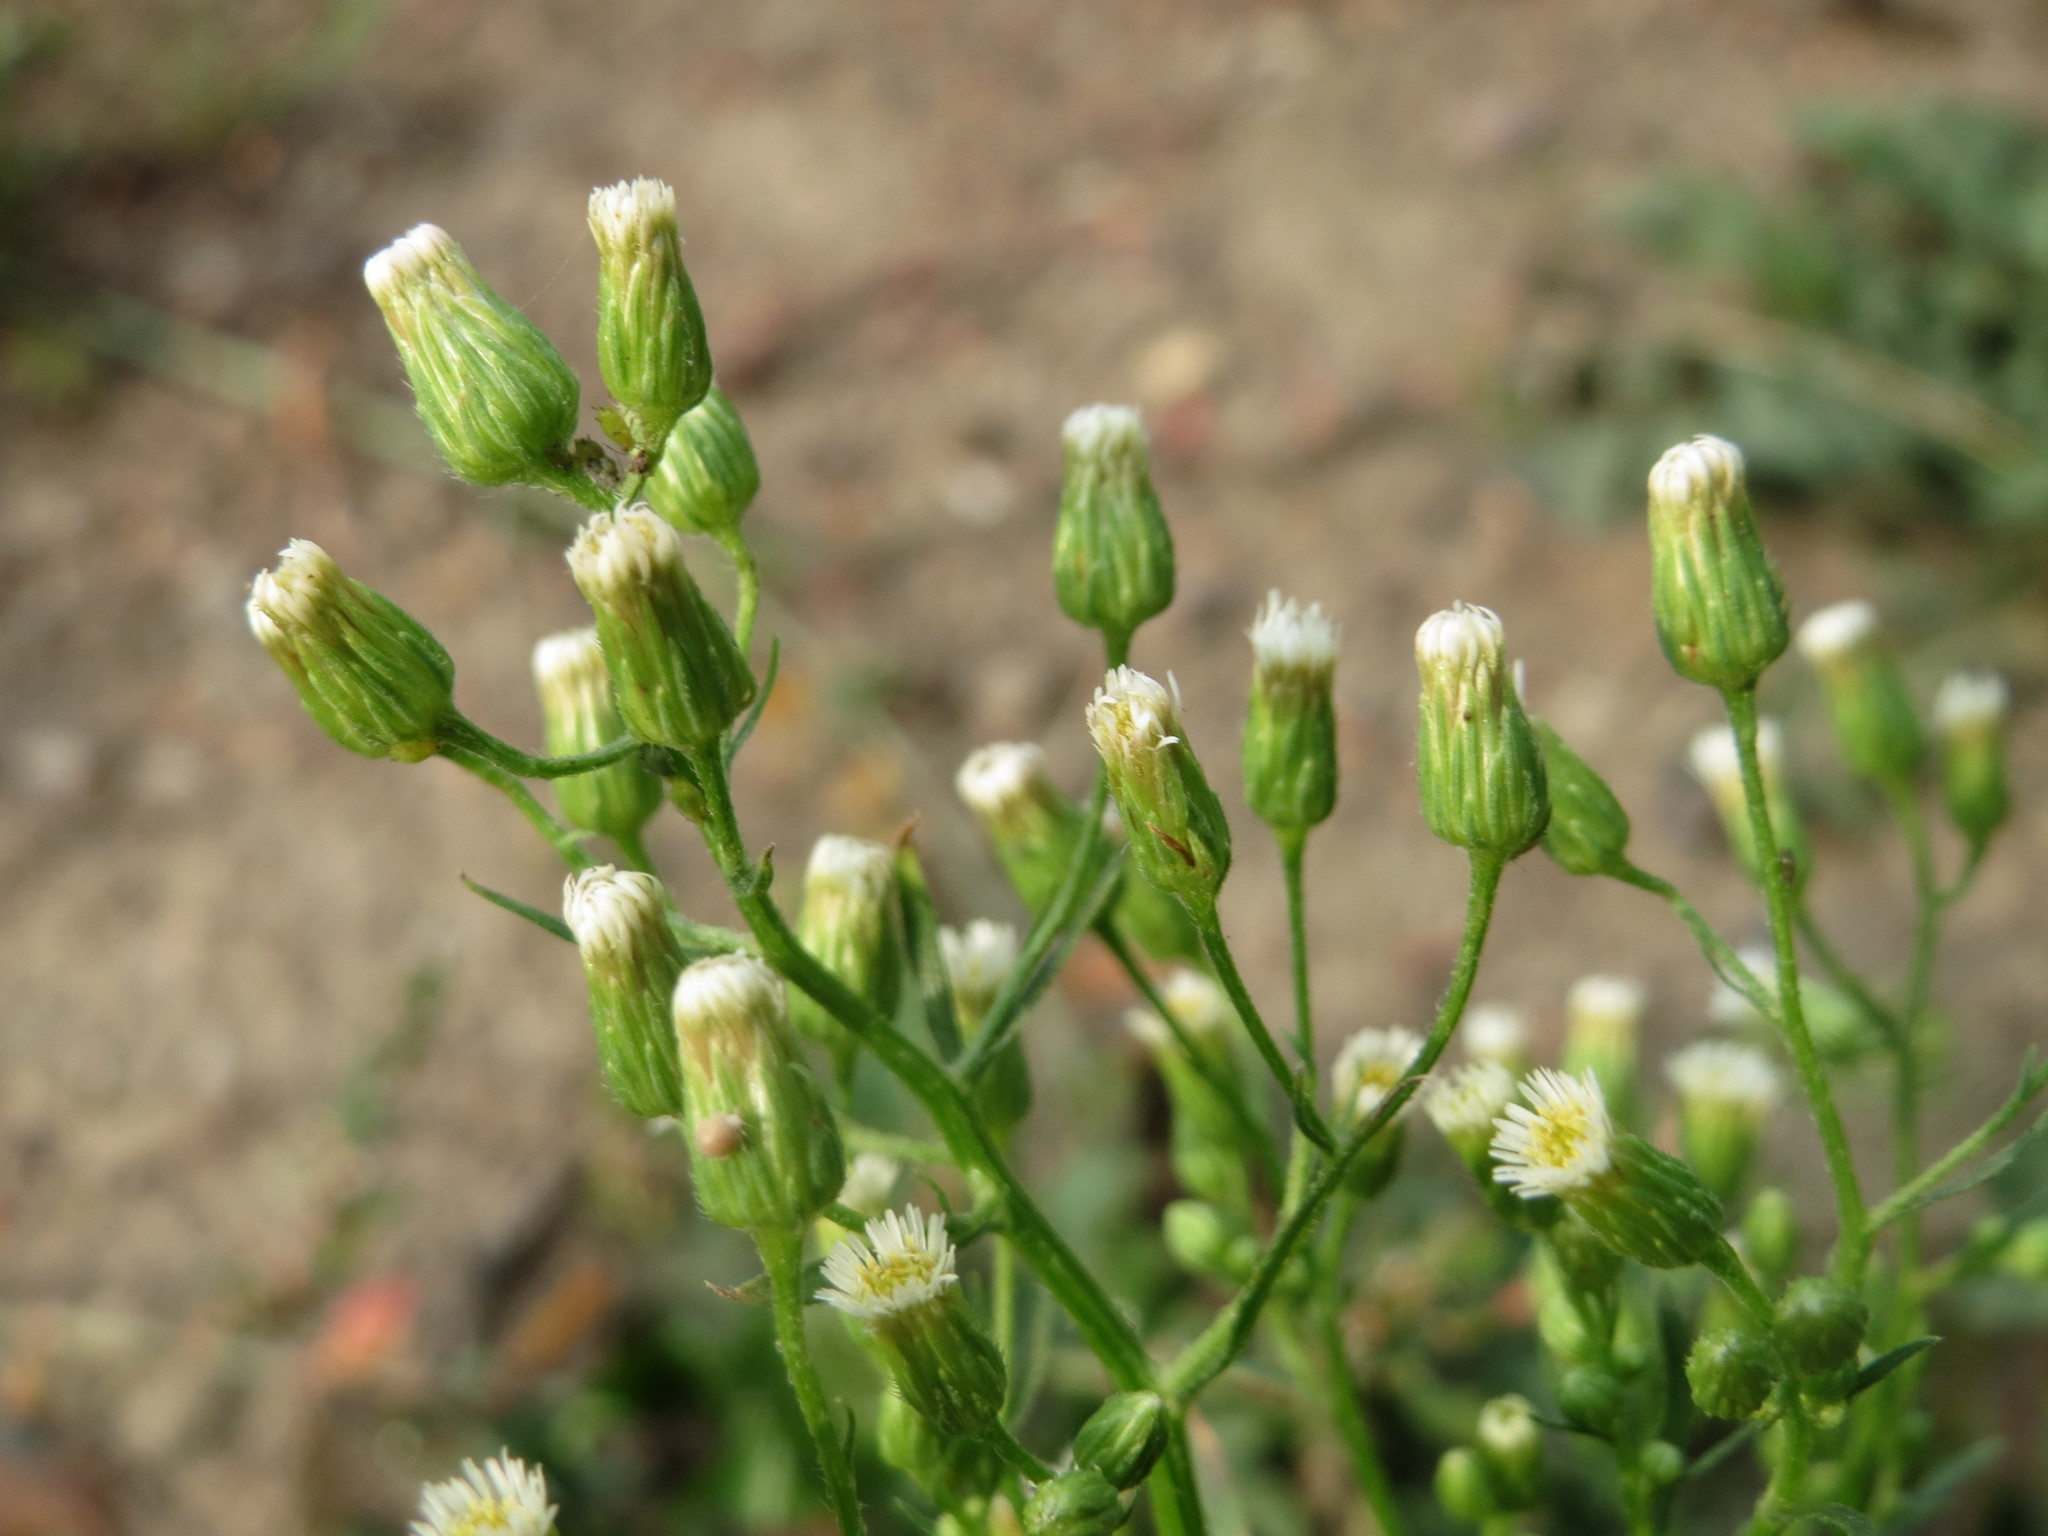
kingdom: Plantae
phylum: Tracheophyta
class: Magnoliopsida
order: Asterales
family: Asteraceae
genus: Erigeron
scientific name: Erigeron canadensis
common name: Canadian fleabane
